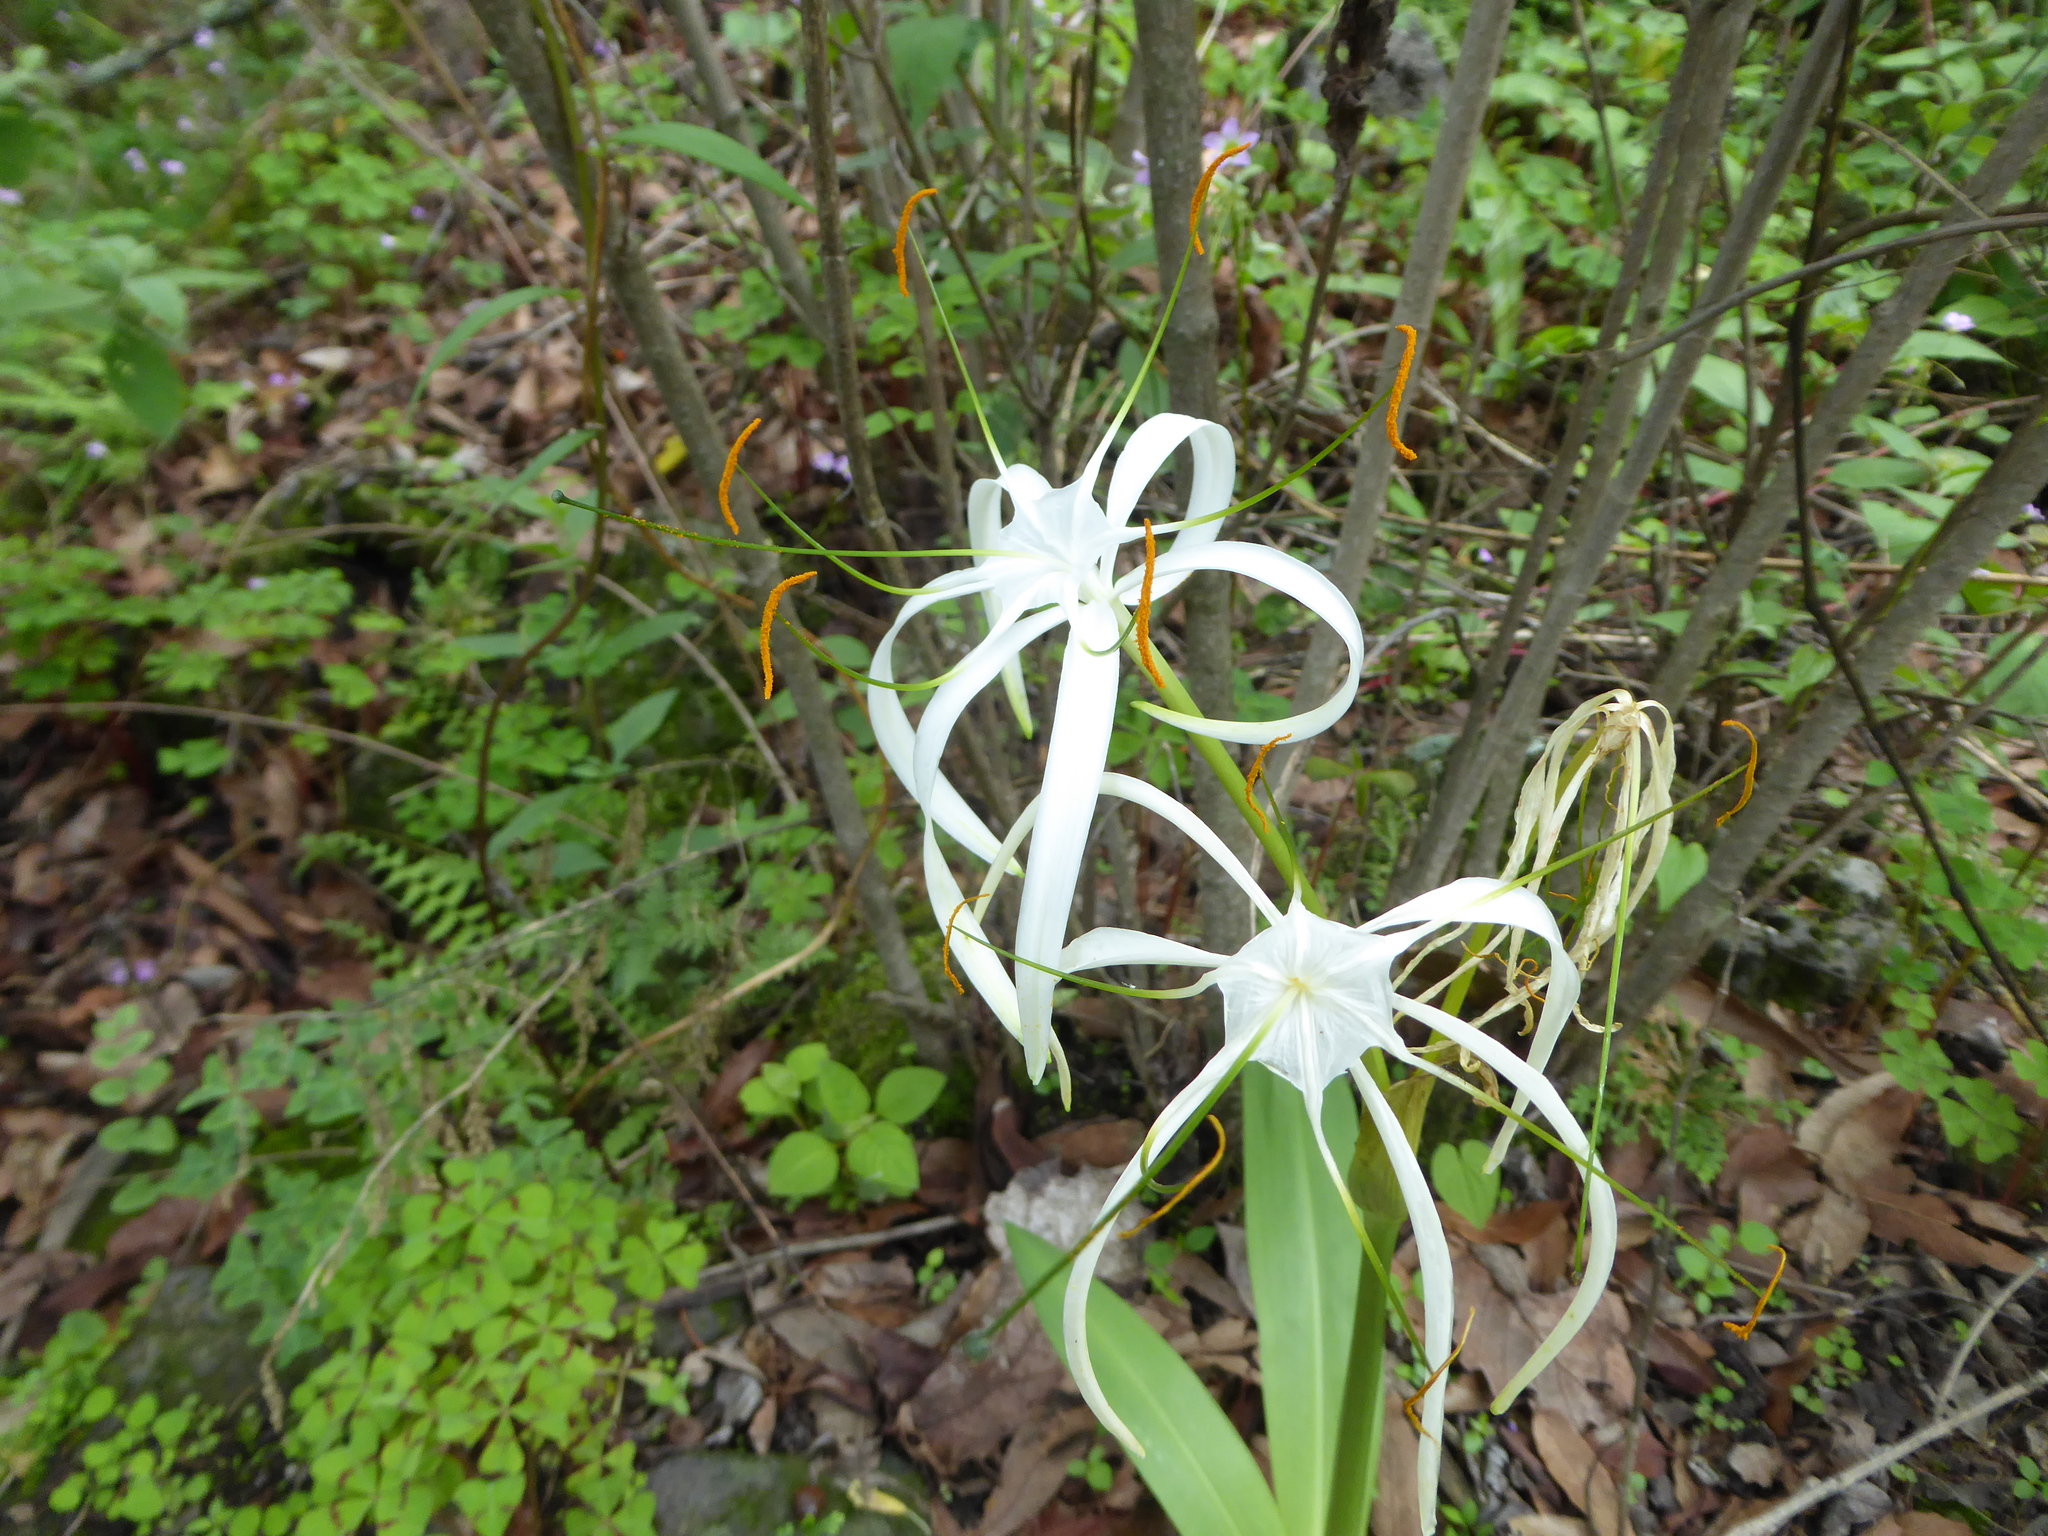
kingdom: Plantae
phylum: Tracheophyta
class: Liliopsida
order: Asparagales
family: Amaryllidaceae
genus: Hymenocallis
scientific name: Hymenocallis harrisiana
